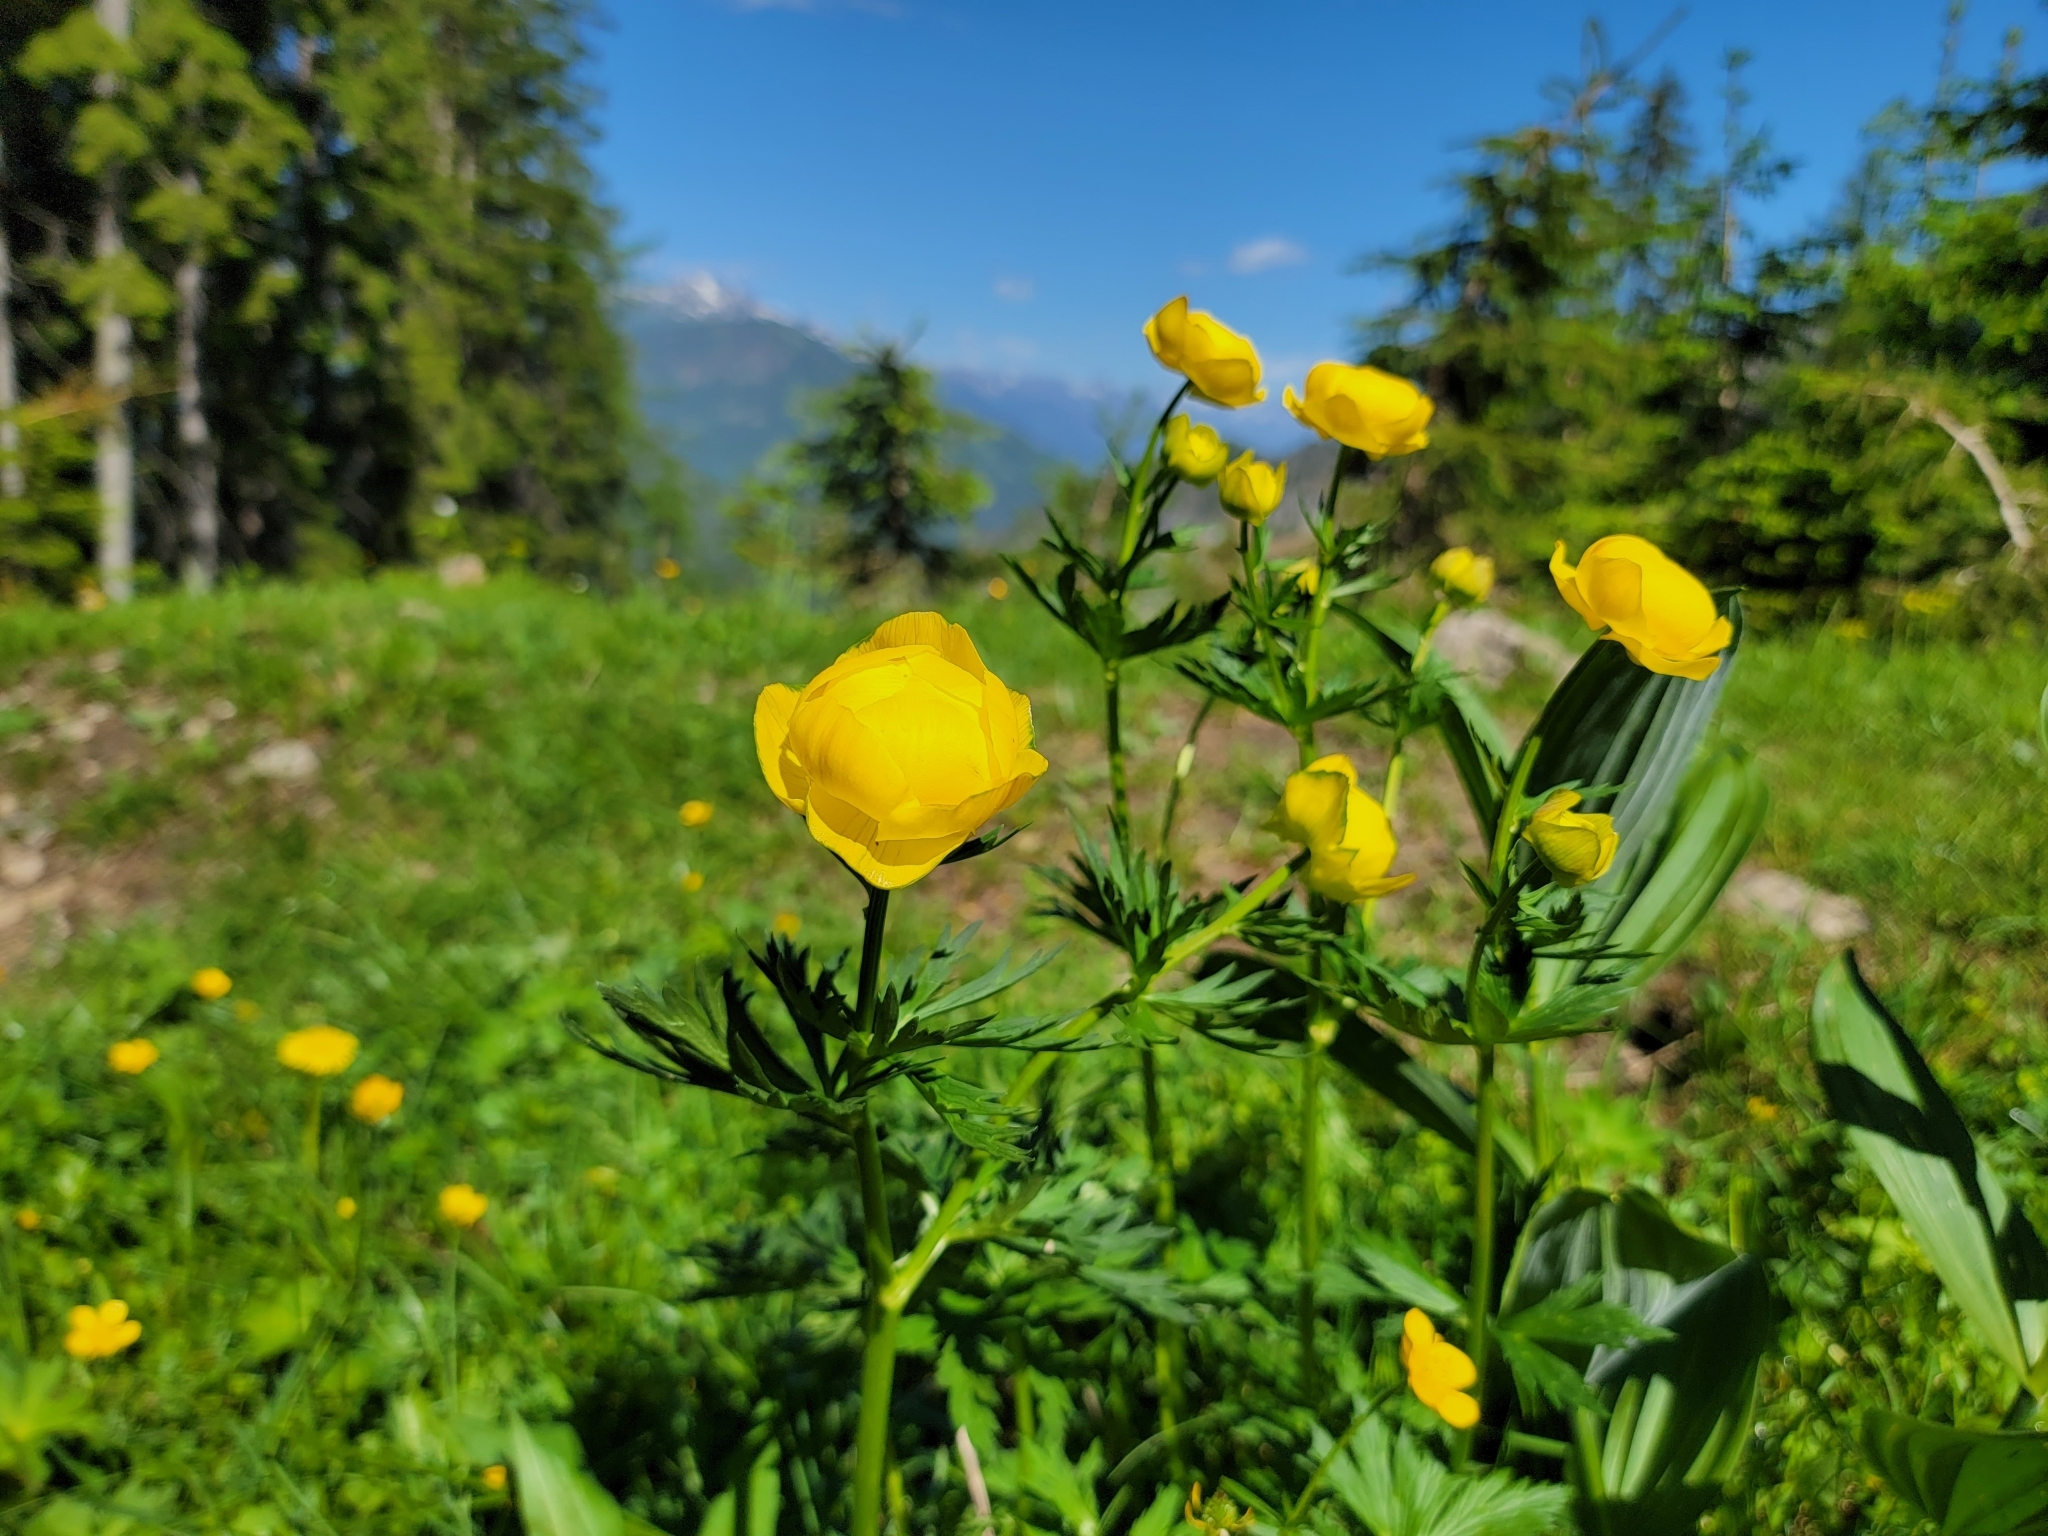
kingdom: Plantae
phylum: Tracheophyta
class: Magnoliopsida
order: Ranunculales
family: Ranunculaceae
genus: Trollius
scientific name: Trollius europaeus
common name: European globeflower
